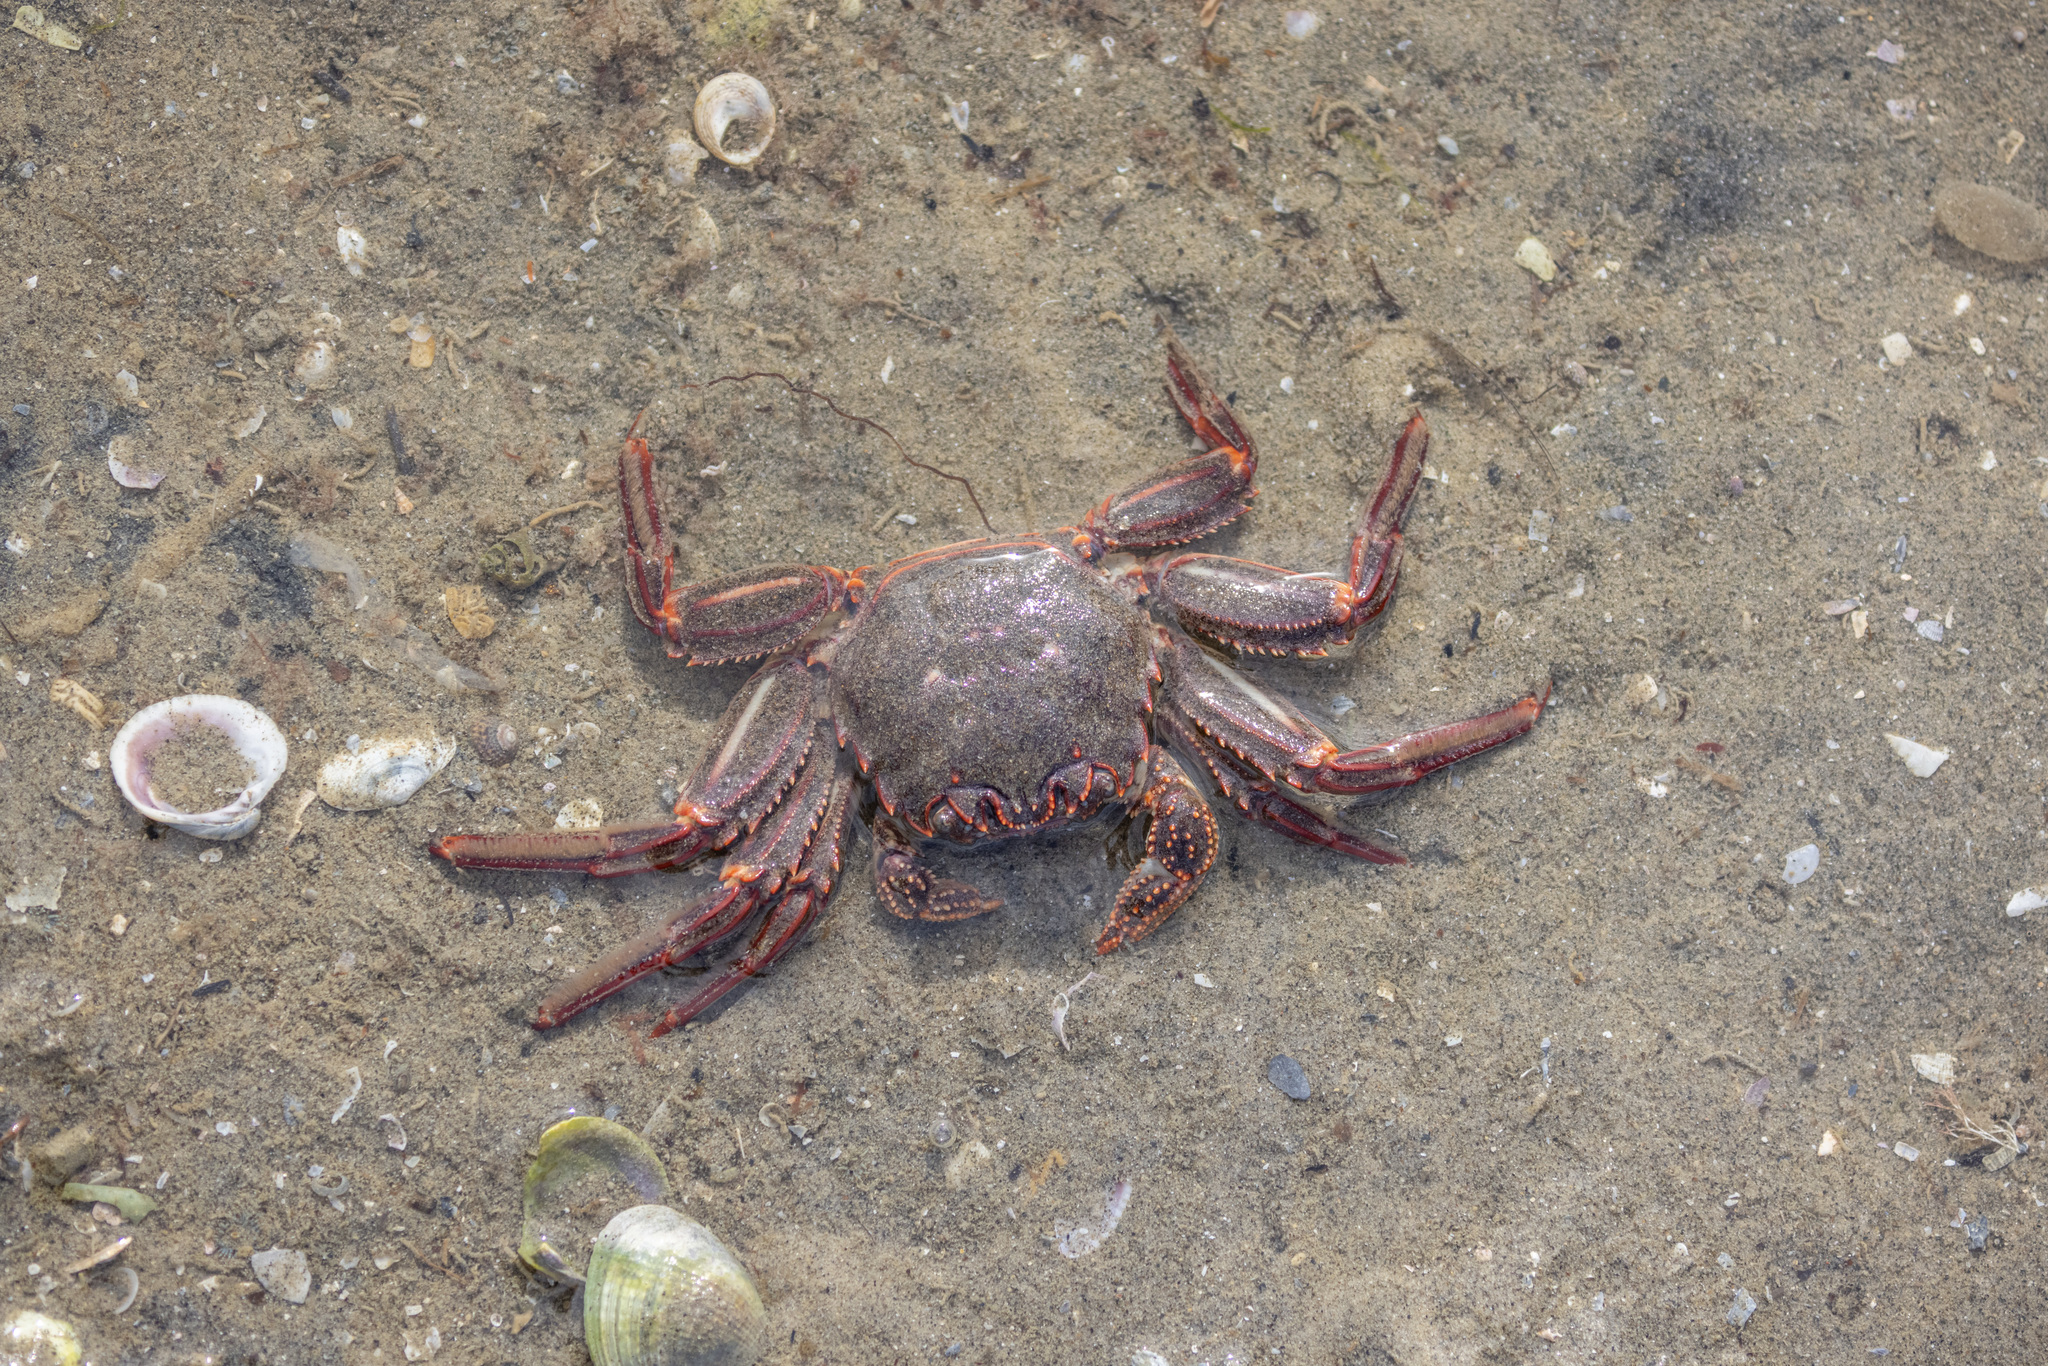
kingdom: Animalia
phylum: Arthropoda
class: Malacostraca
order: Decapoda
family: Plagusiidae
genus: Guinusia
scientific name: Guinusia chabrus
